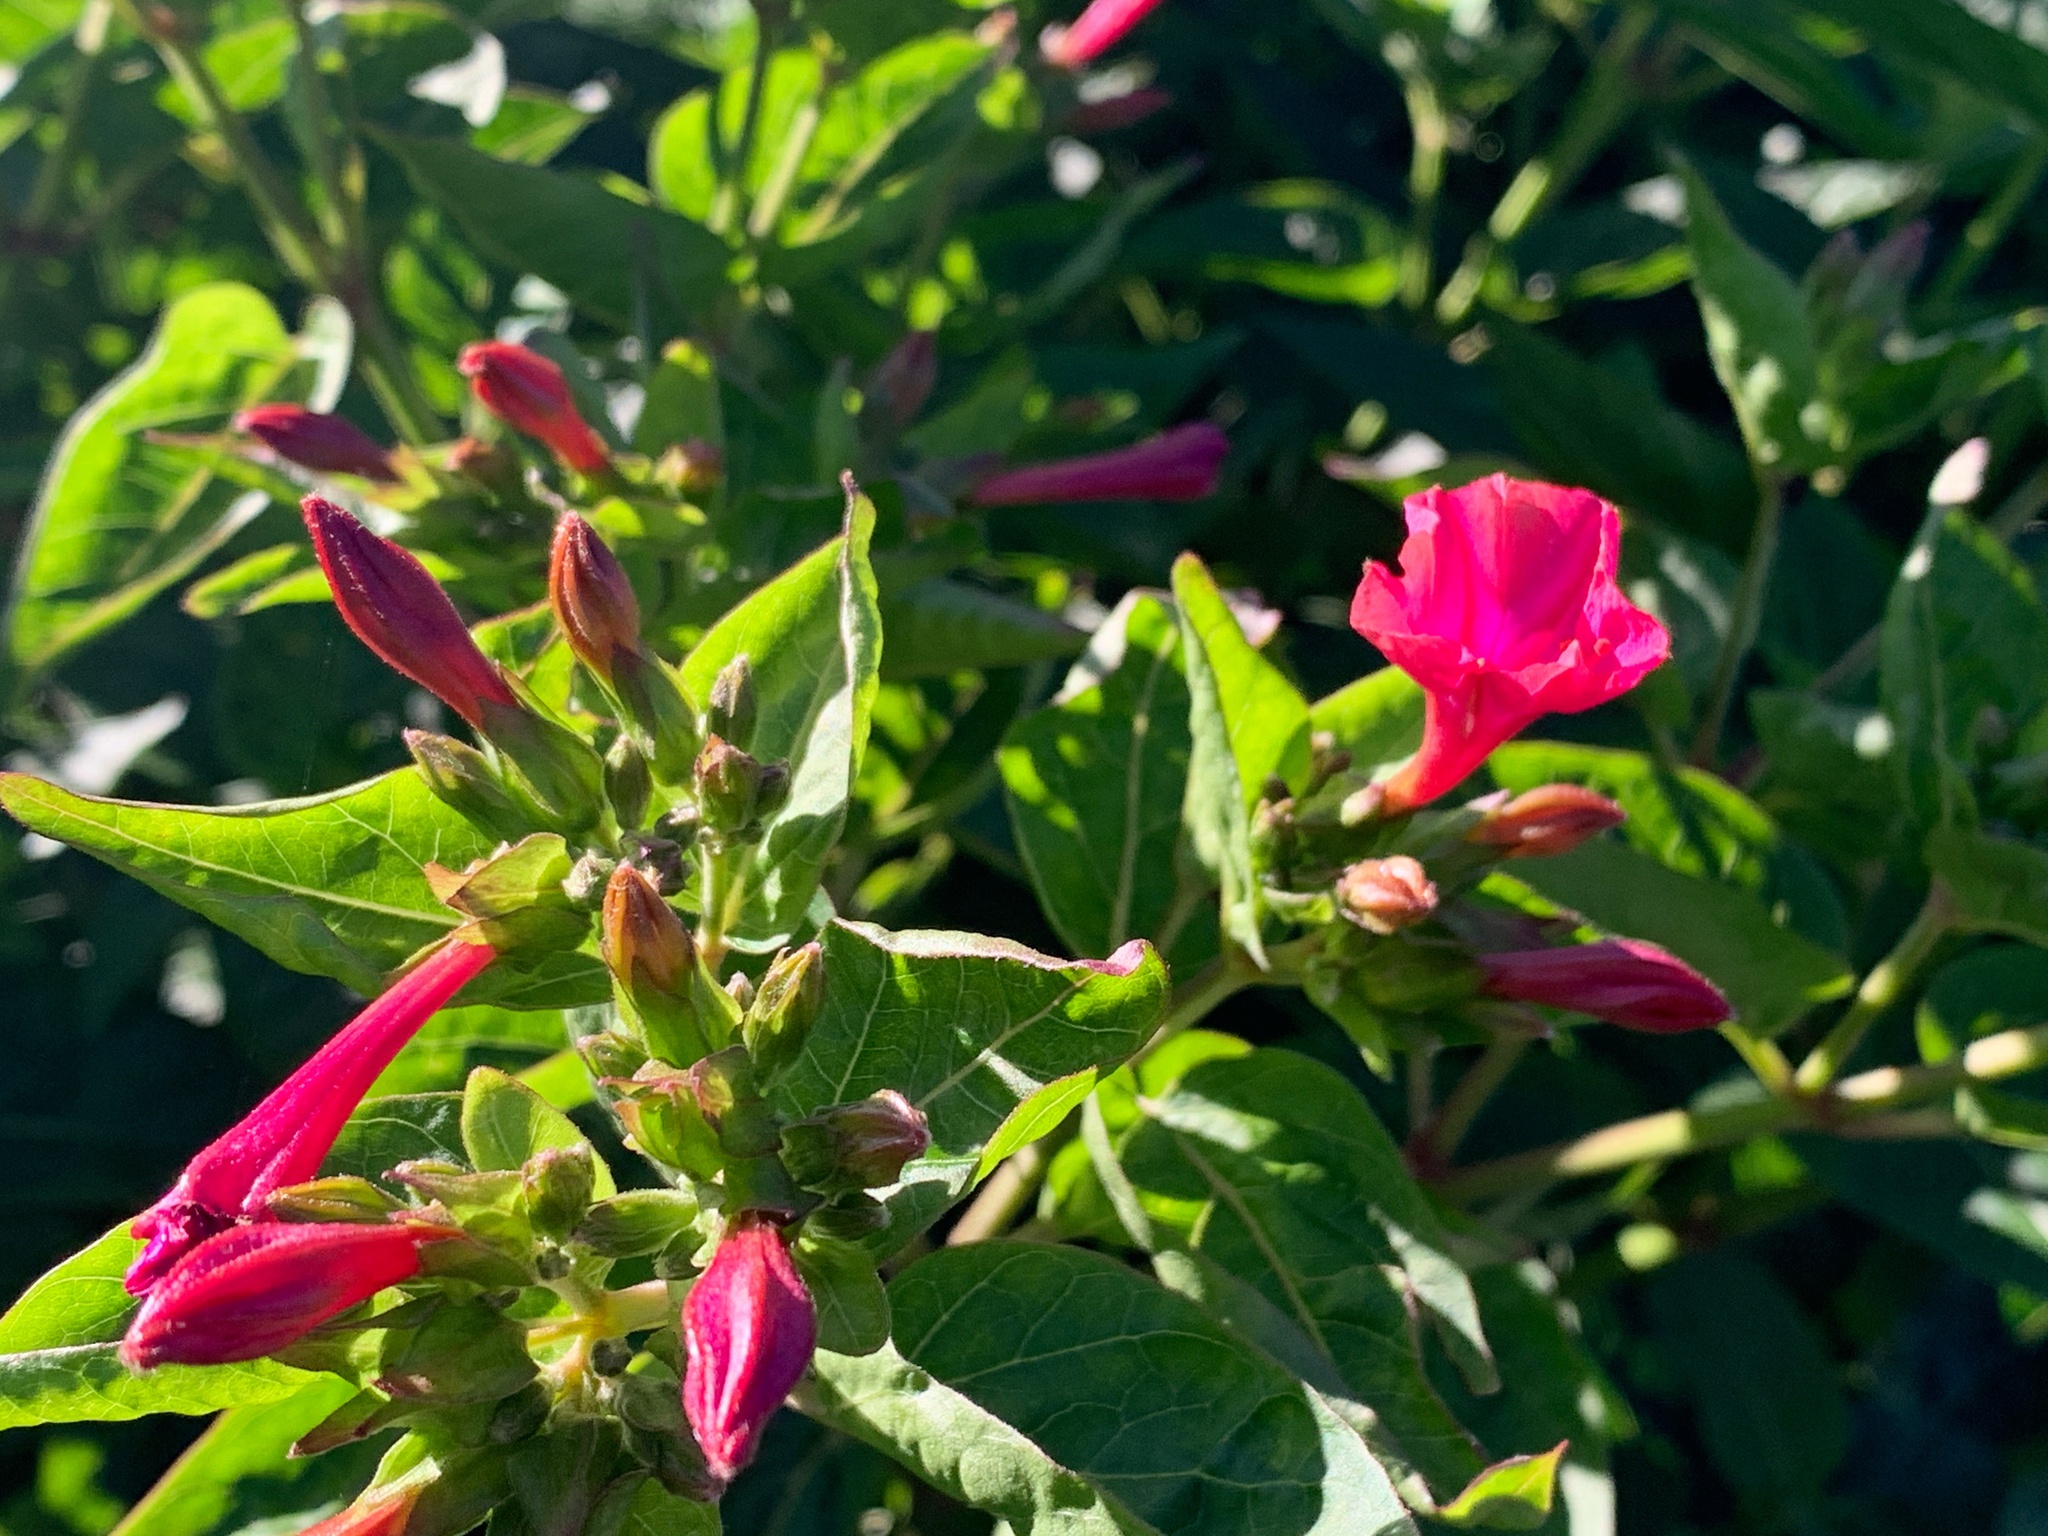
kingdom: Plantae
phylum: Tracheophyta
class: Magnoliopsida
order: Caryophyllales
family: Nyctaginaceae
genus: Mirabilis
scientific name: Mirabilis jalapa
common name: Marvel-of-peru
